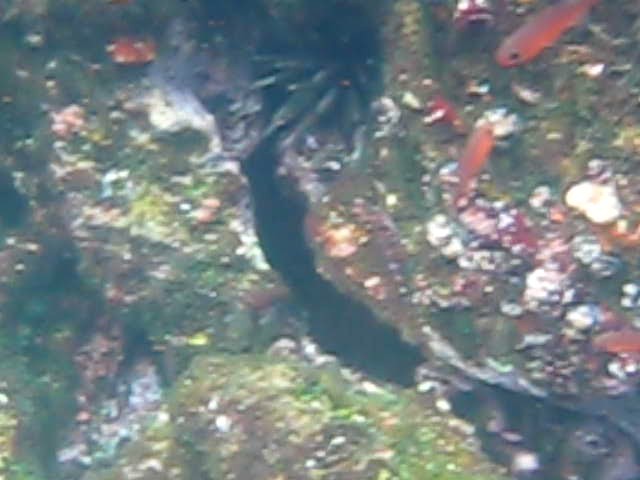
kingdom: Animalia
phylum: Echinodermata
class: Echinoidea
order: Cidaroida
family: Cidaridae
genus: Eucidaris
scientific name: Eucidaris galapagensis
